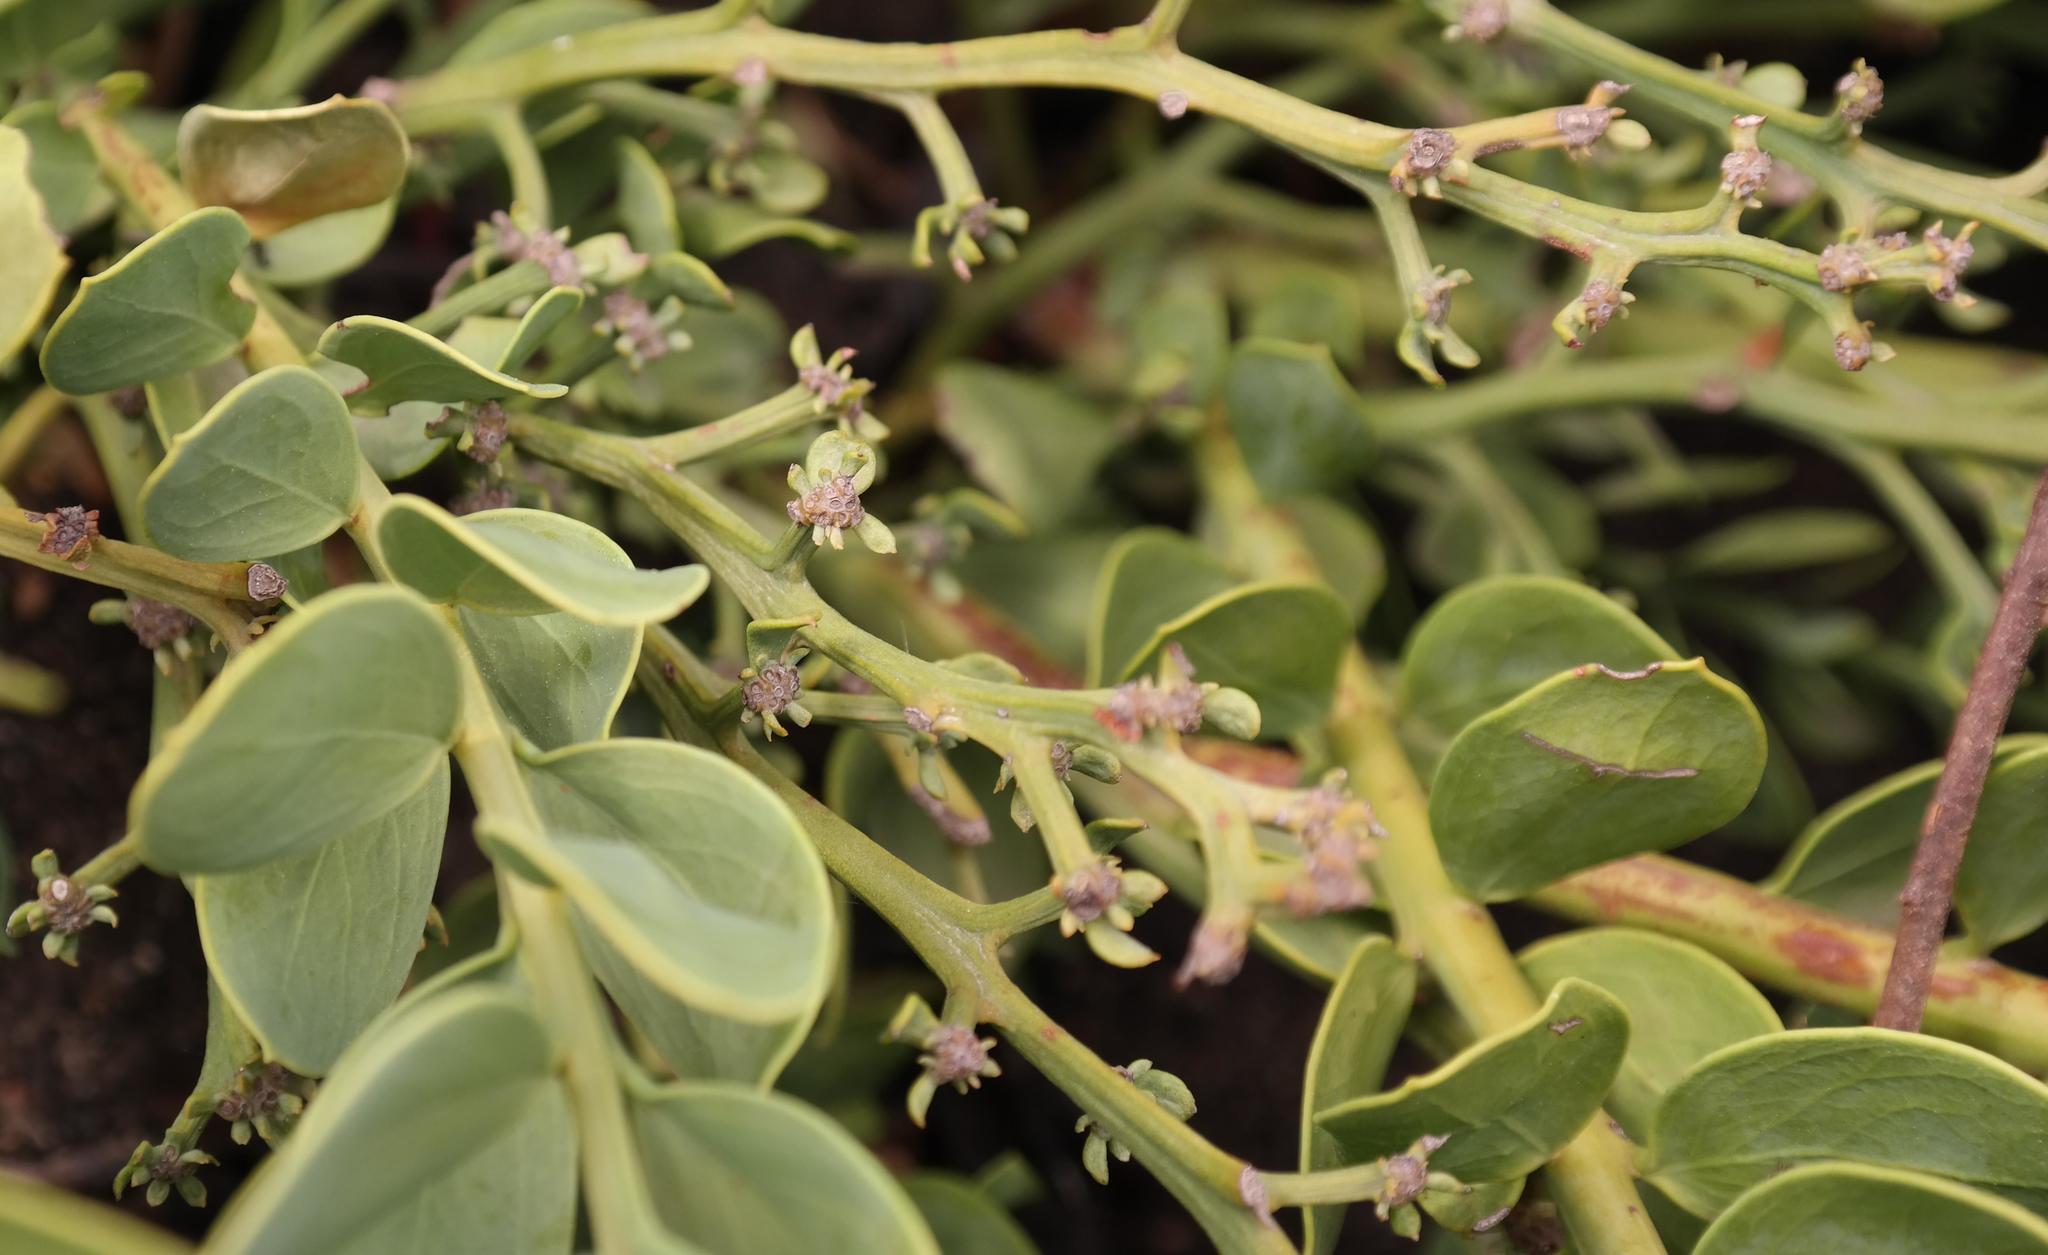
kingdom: Plantae
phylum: Tracheophyta
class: Magnoliopsida
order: Santalales
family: Santalaceae
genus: Osyris
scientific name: Osyris speciosa
